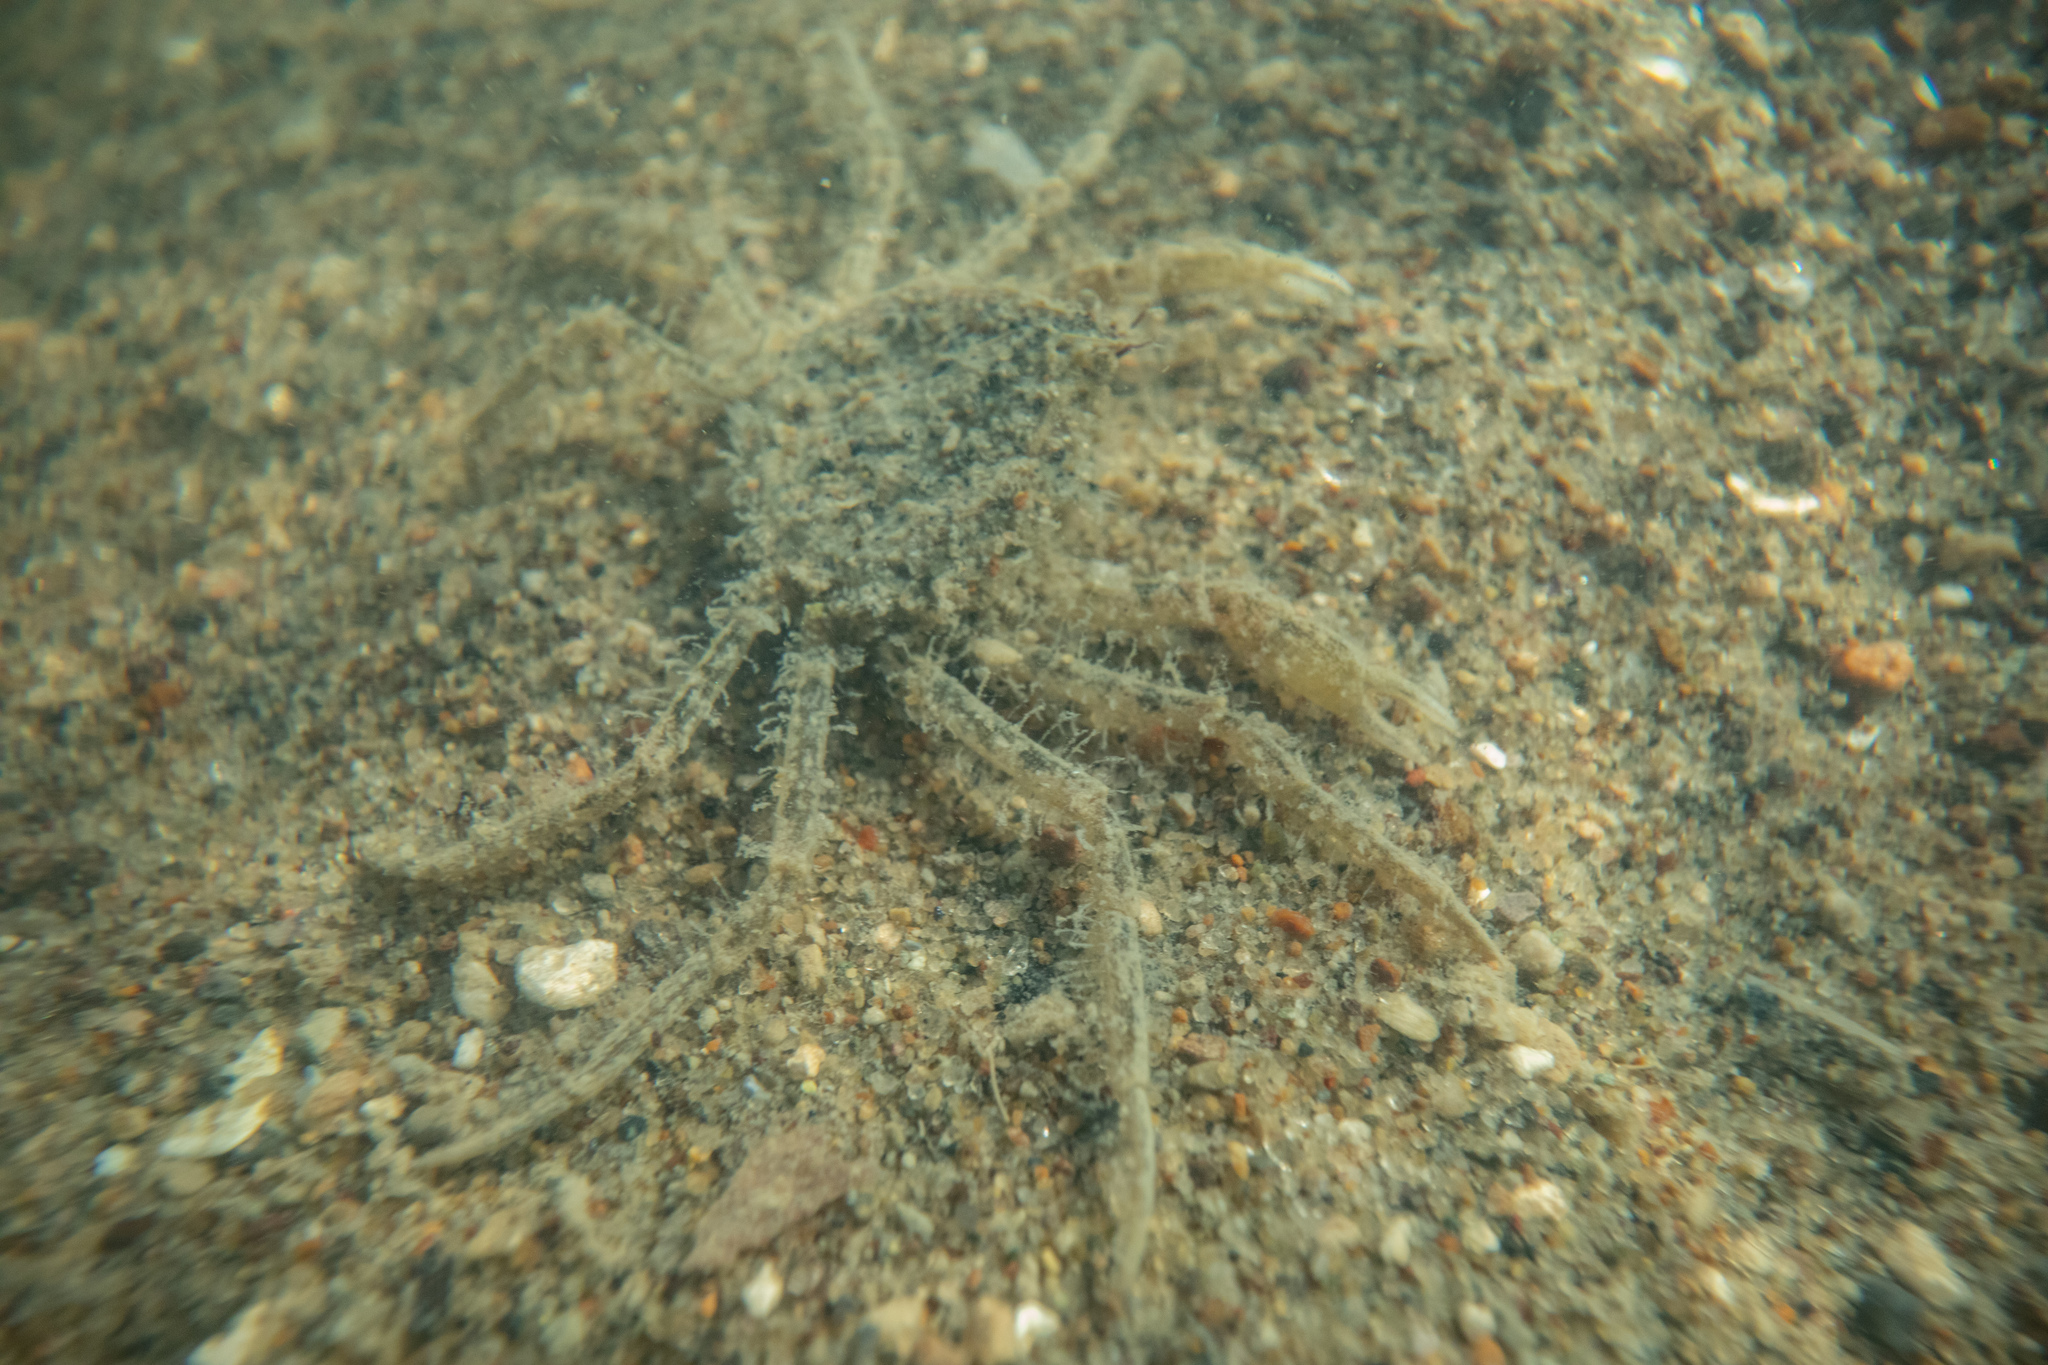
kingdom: Animalia
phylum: Arthropoda
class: Malacostraca
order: Decapoda
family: Hymenosomatidae
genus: Halicarcinus
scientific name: Halicarcinus whitei
